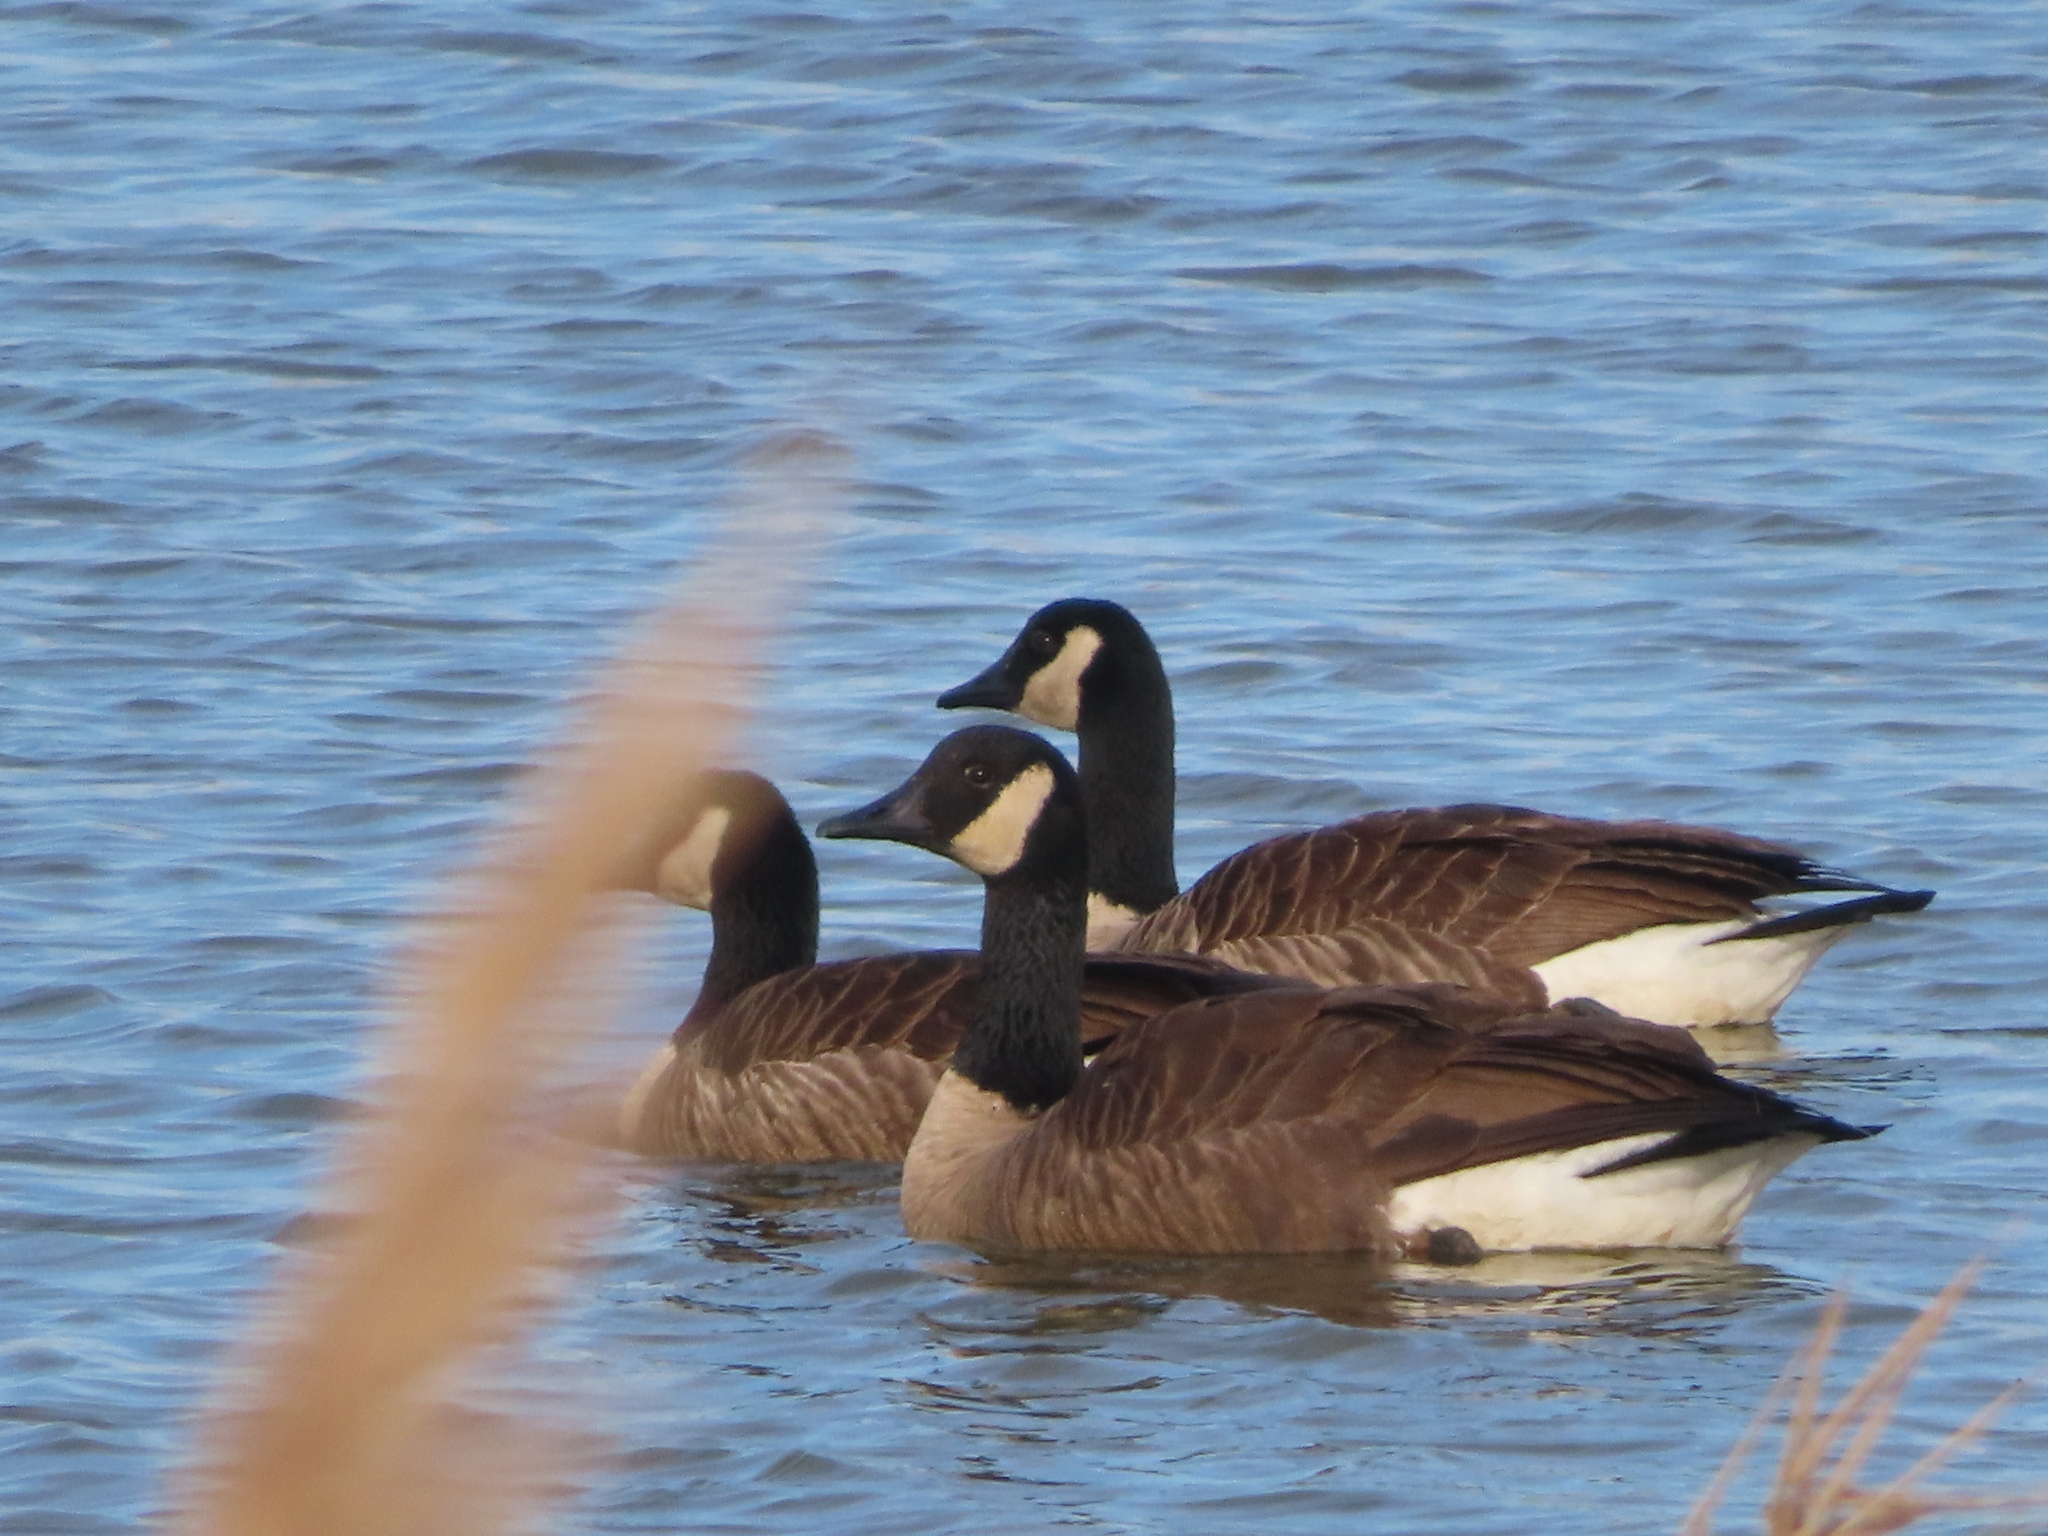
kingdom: Animalia
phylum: Chordata
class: Aves
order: Anseriformes
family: Anatidae
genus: Branta
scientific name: Branta canadensis
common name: Canada goose
